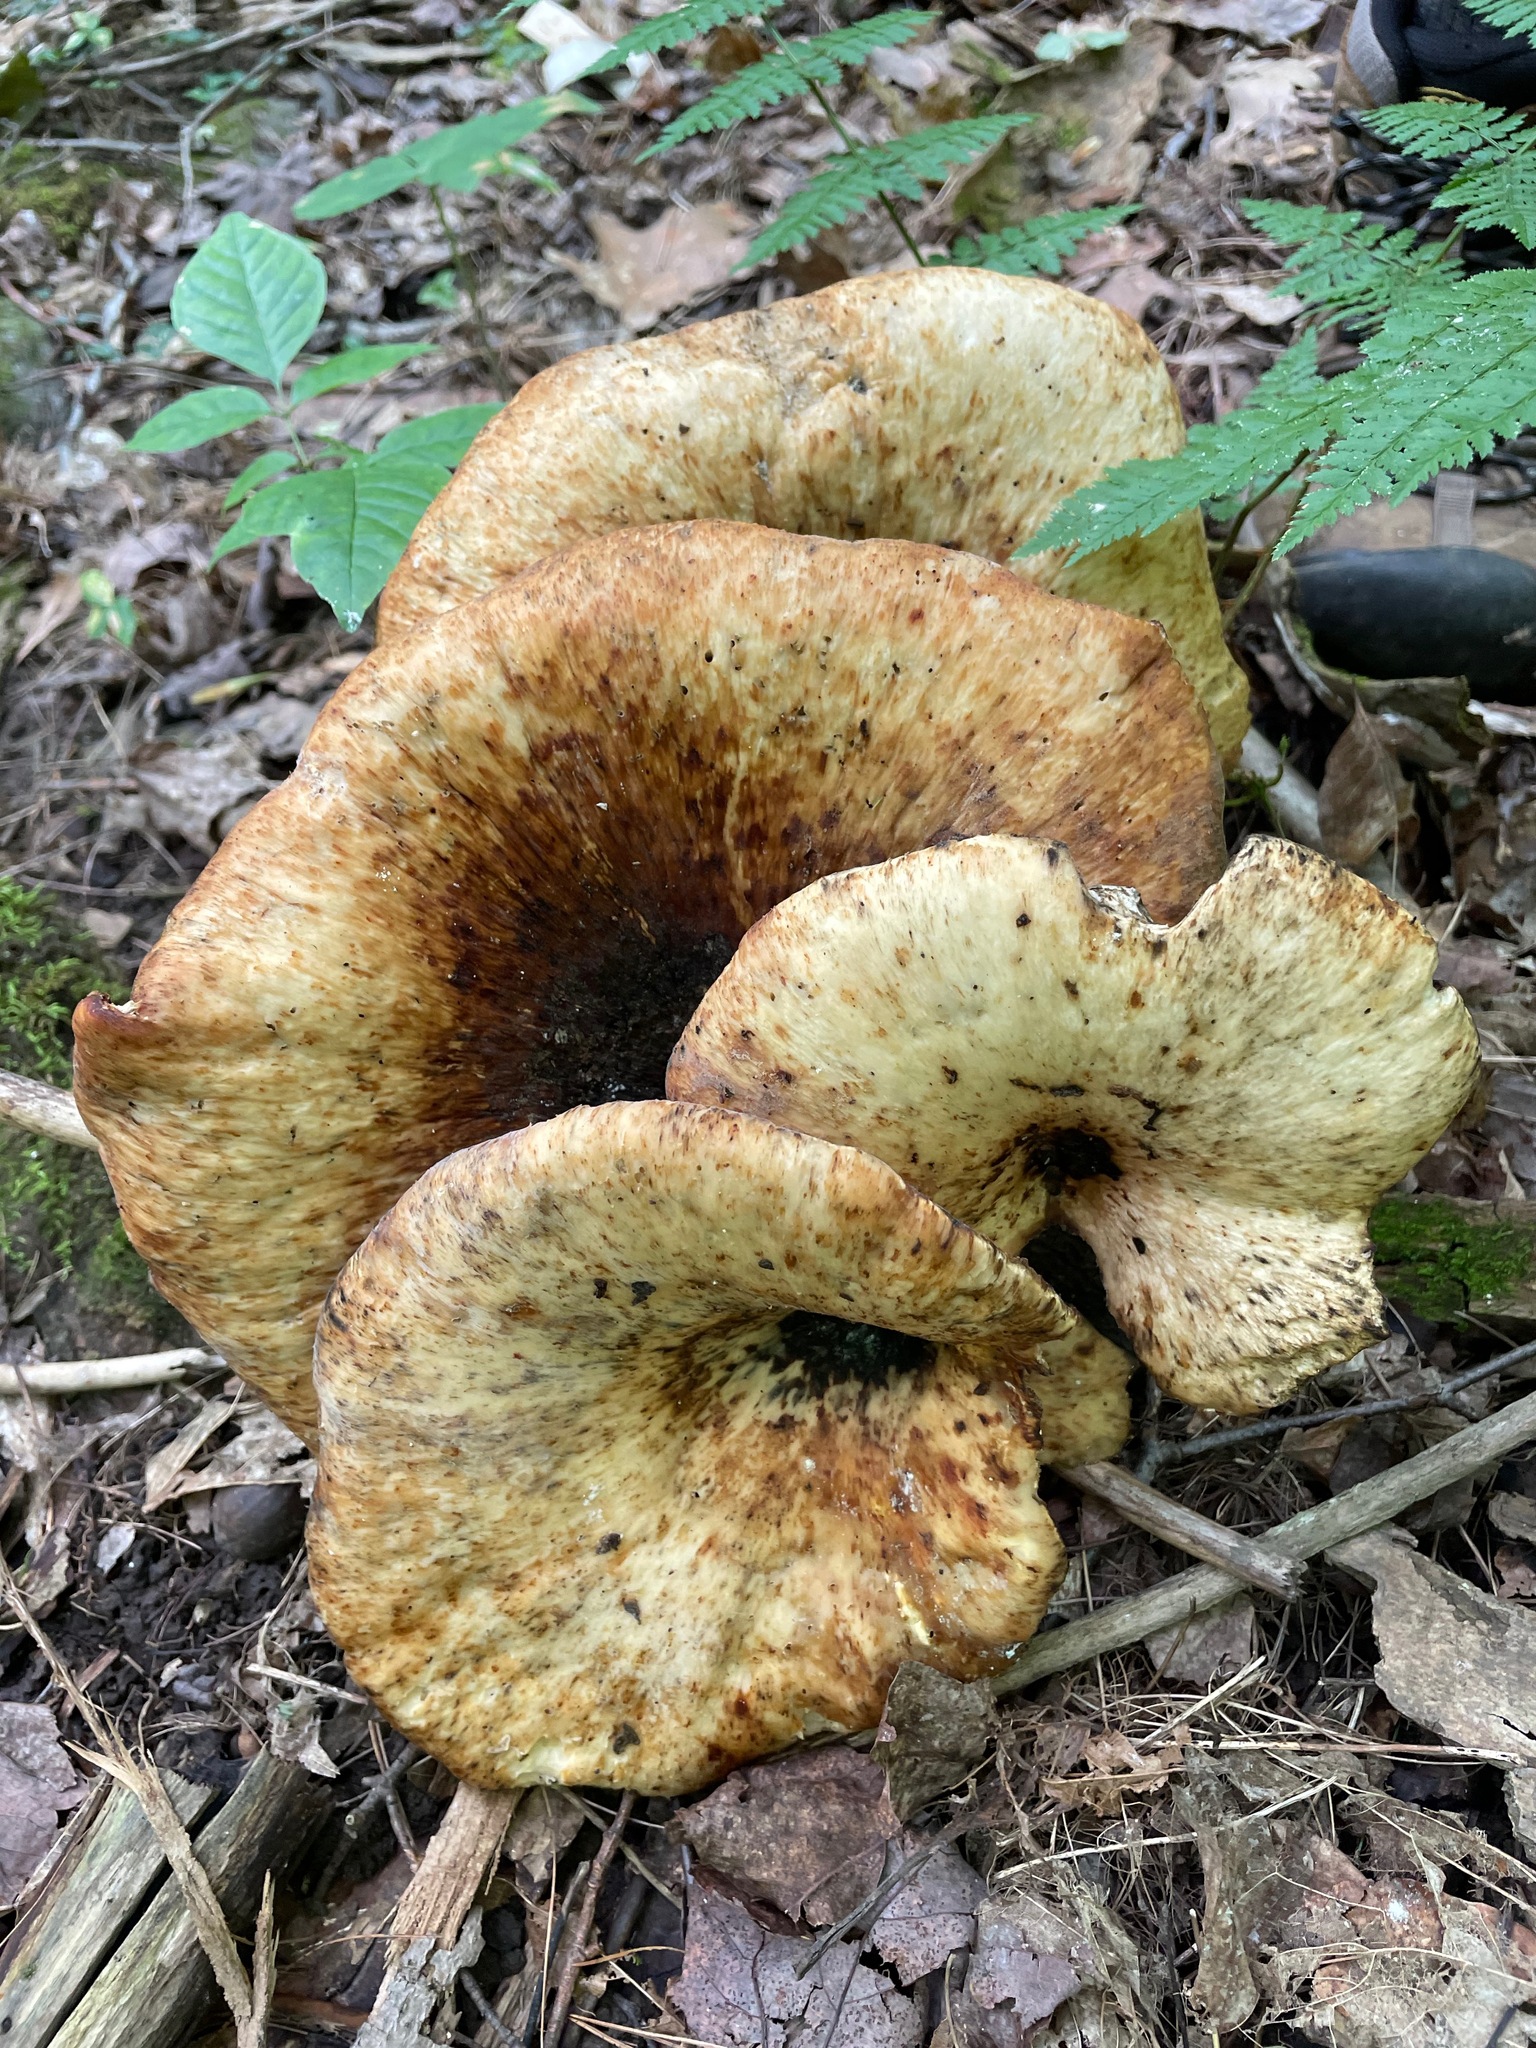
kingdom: Fungi
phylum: Basidiomycota
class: Agaricomycetes
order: Polyporales
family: Polyporaceae
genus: Cerioporus
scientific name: Cerioporus squamosus
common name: Dryad's saddle
